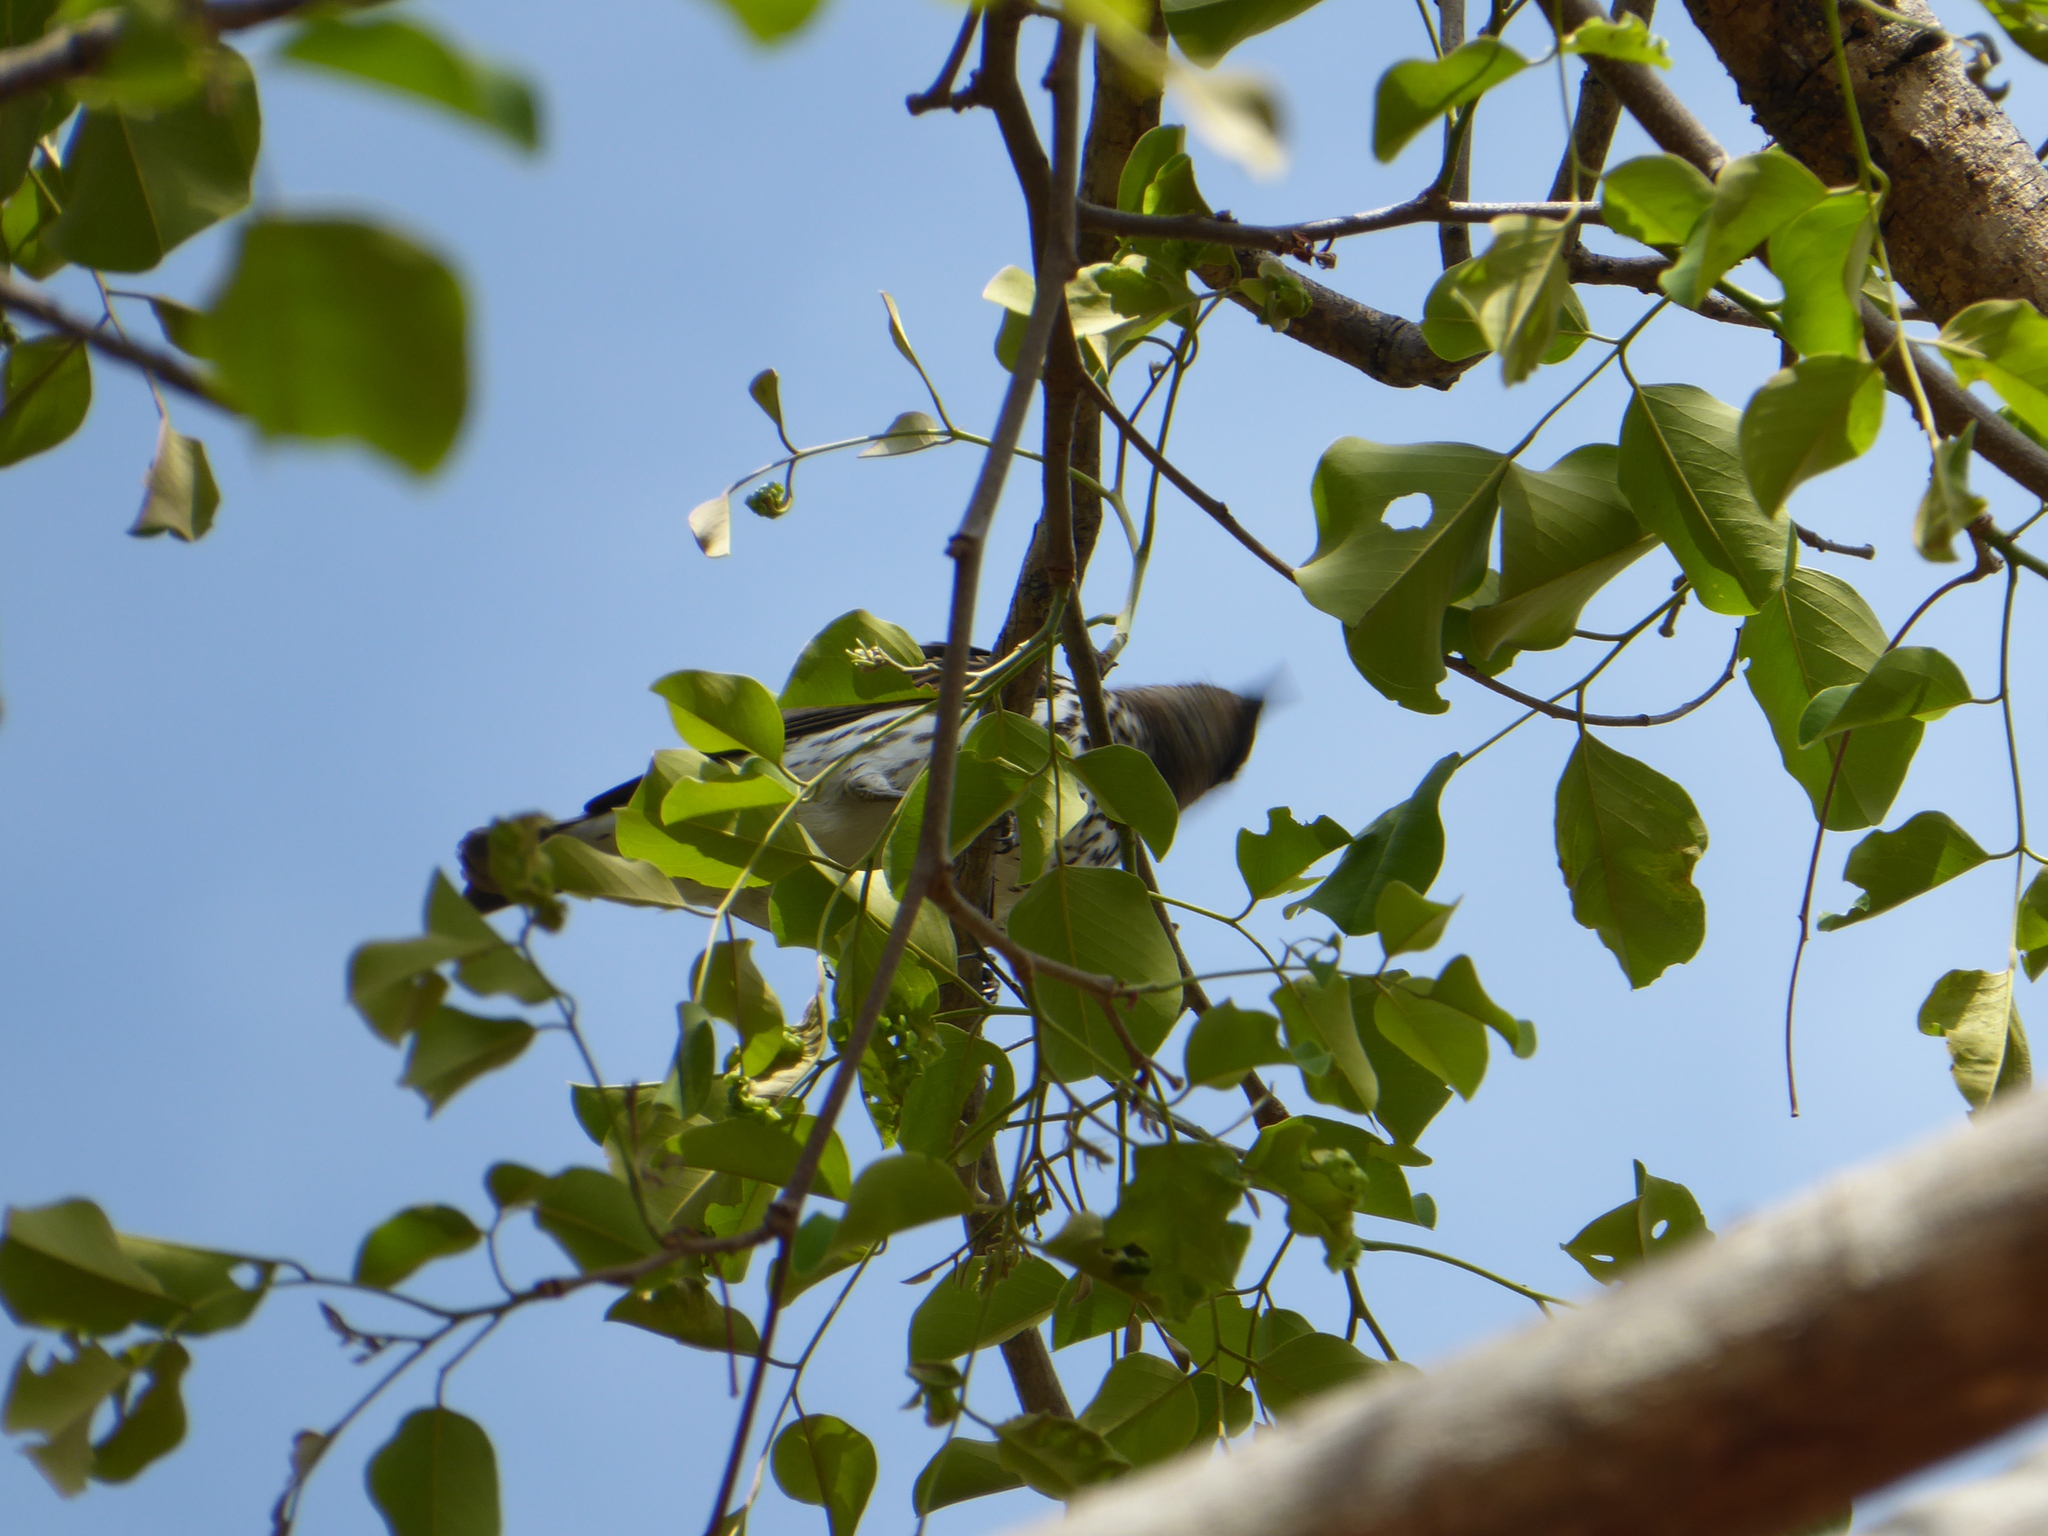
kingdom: Animalia
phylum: Chordata
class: Aves
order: Passeriformes
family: Sturnidae
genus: Cinnyricinclus
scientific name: Cinnyricinclus leucogaster
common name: Violet-backed starling
